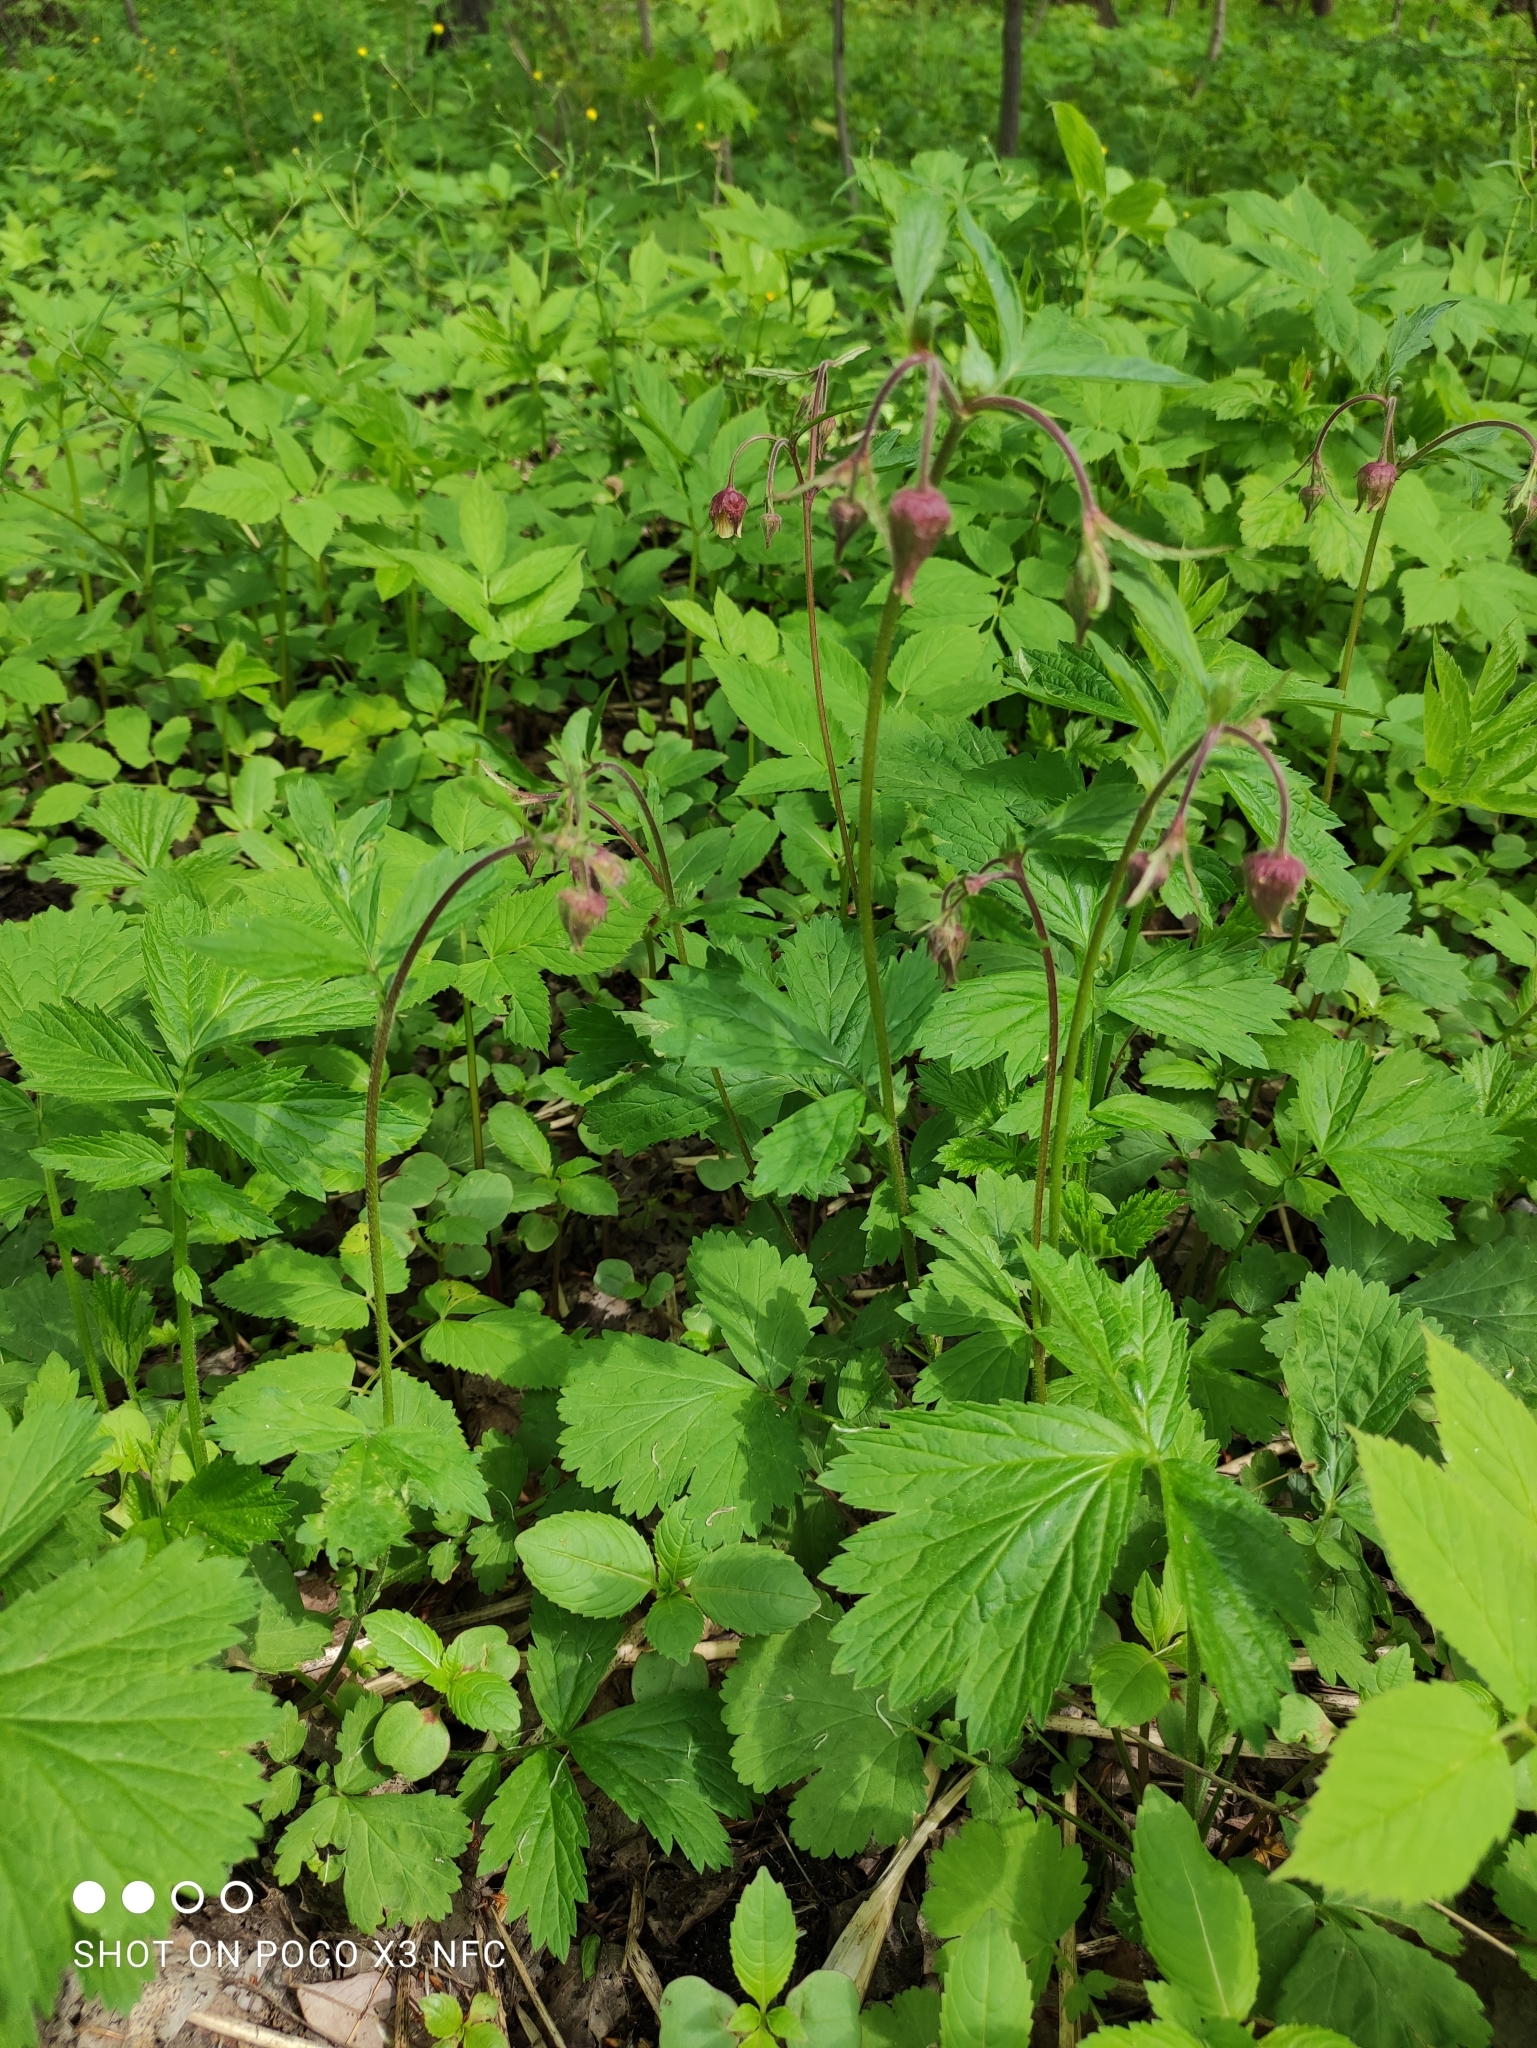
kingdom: Plantae
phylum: Tracheophyta
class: Magnoliopsida
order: Rosales
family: Rosaceae
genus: Geum
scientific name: Geum rivale
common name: Water avens
